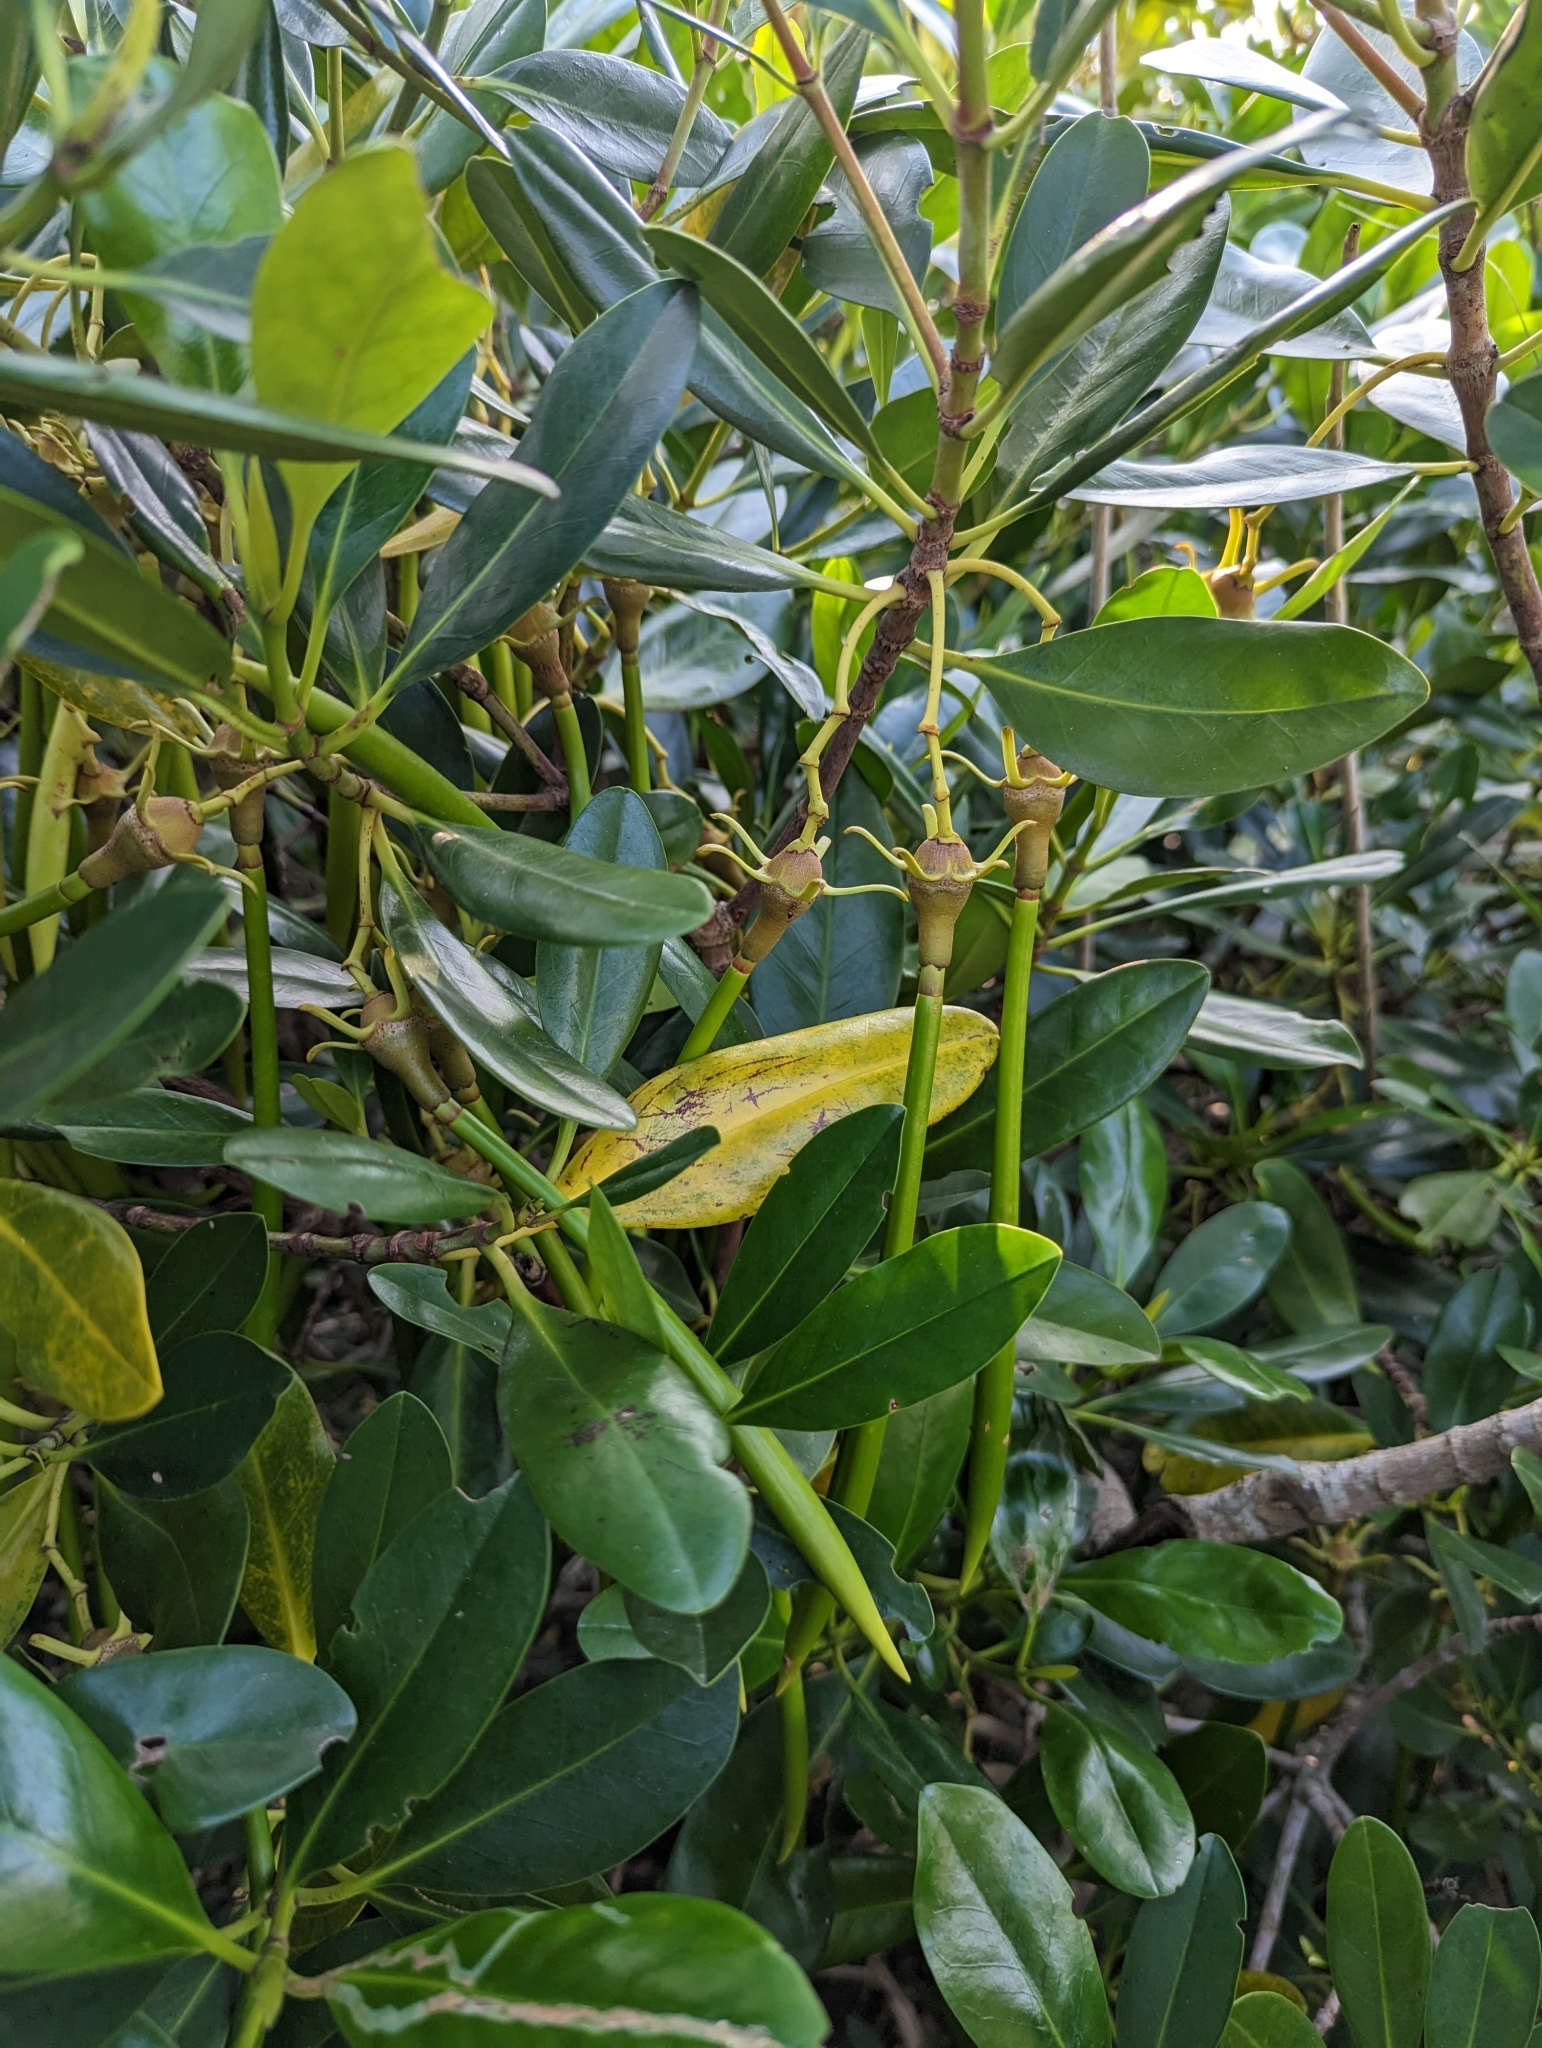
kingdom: Plantae
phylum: Tracheophyta
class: Magnoliopsida
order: Malpighiales
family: Rhizophoraceae
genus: Kandelia
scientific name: Kandelia obovata
